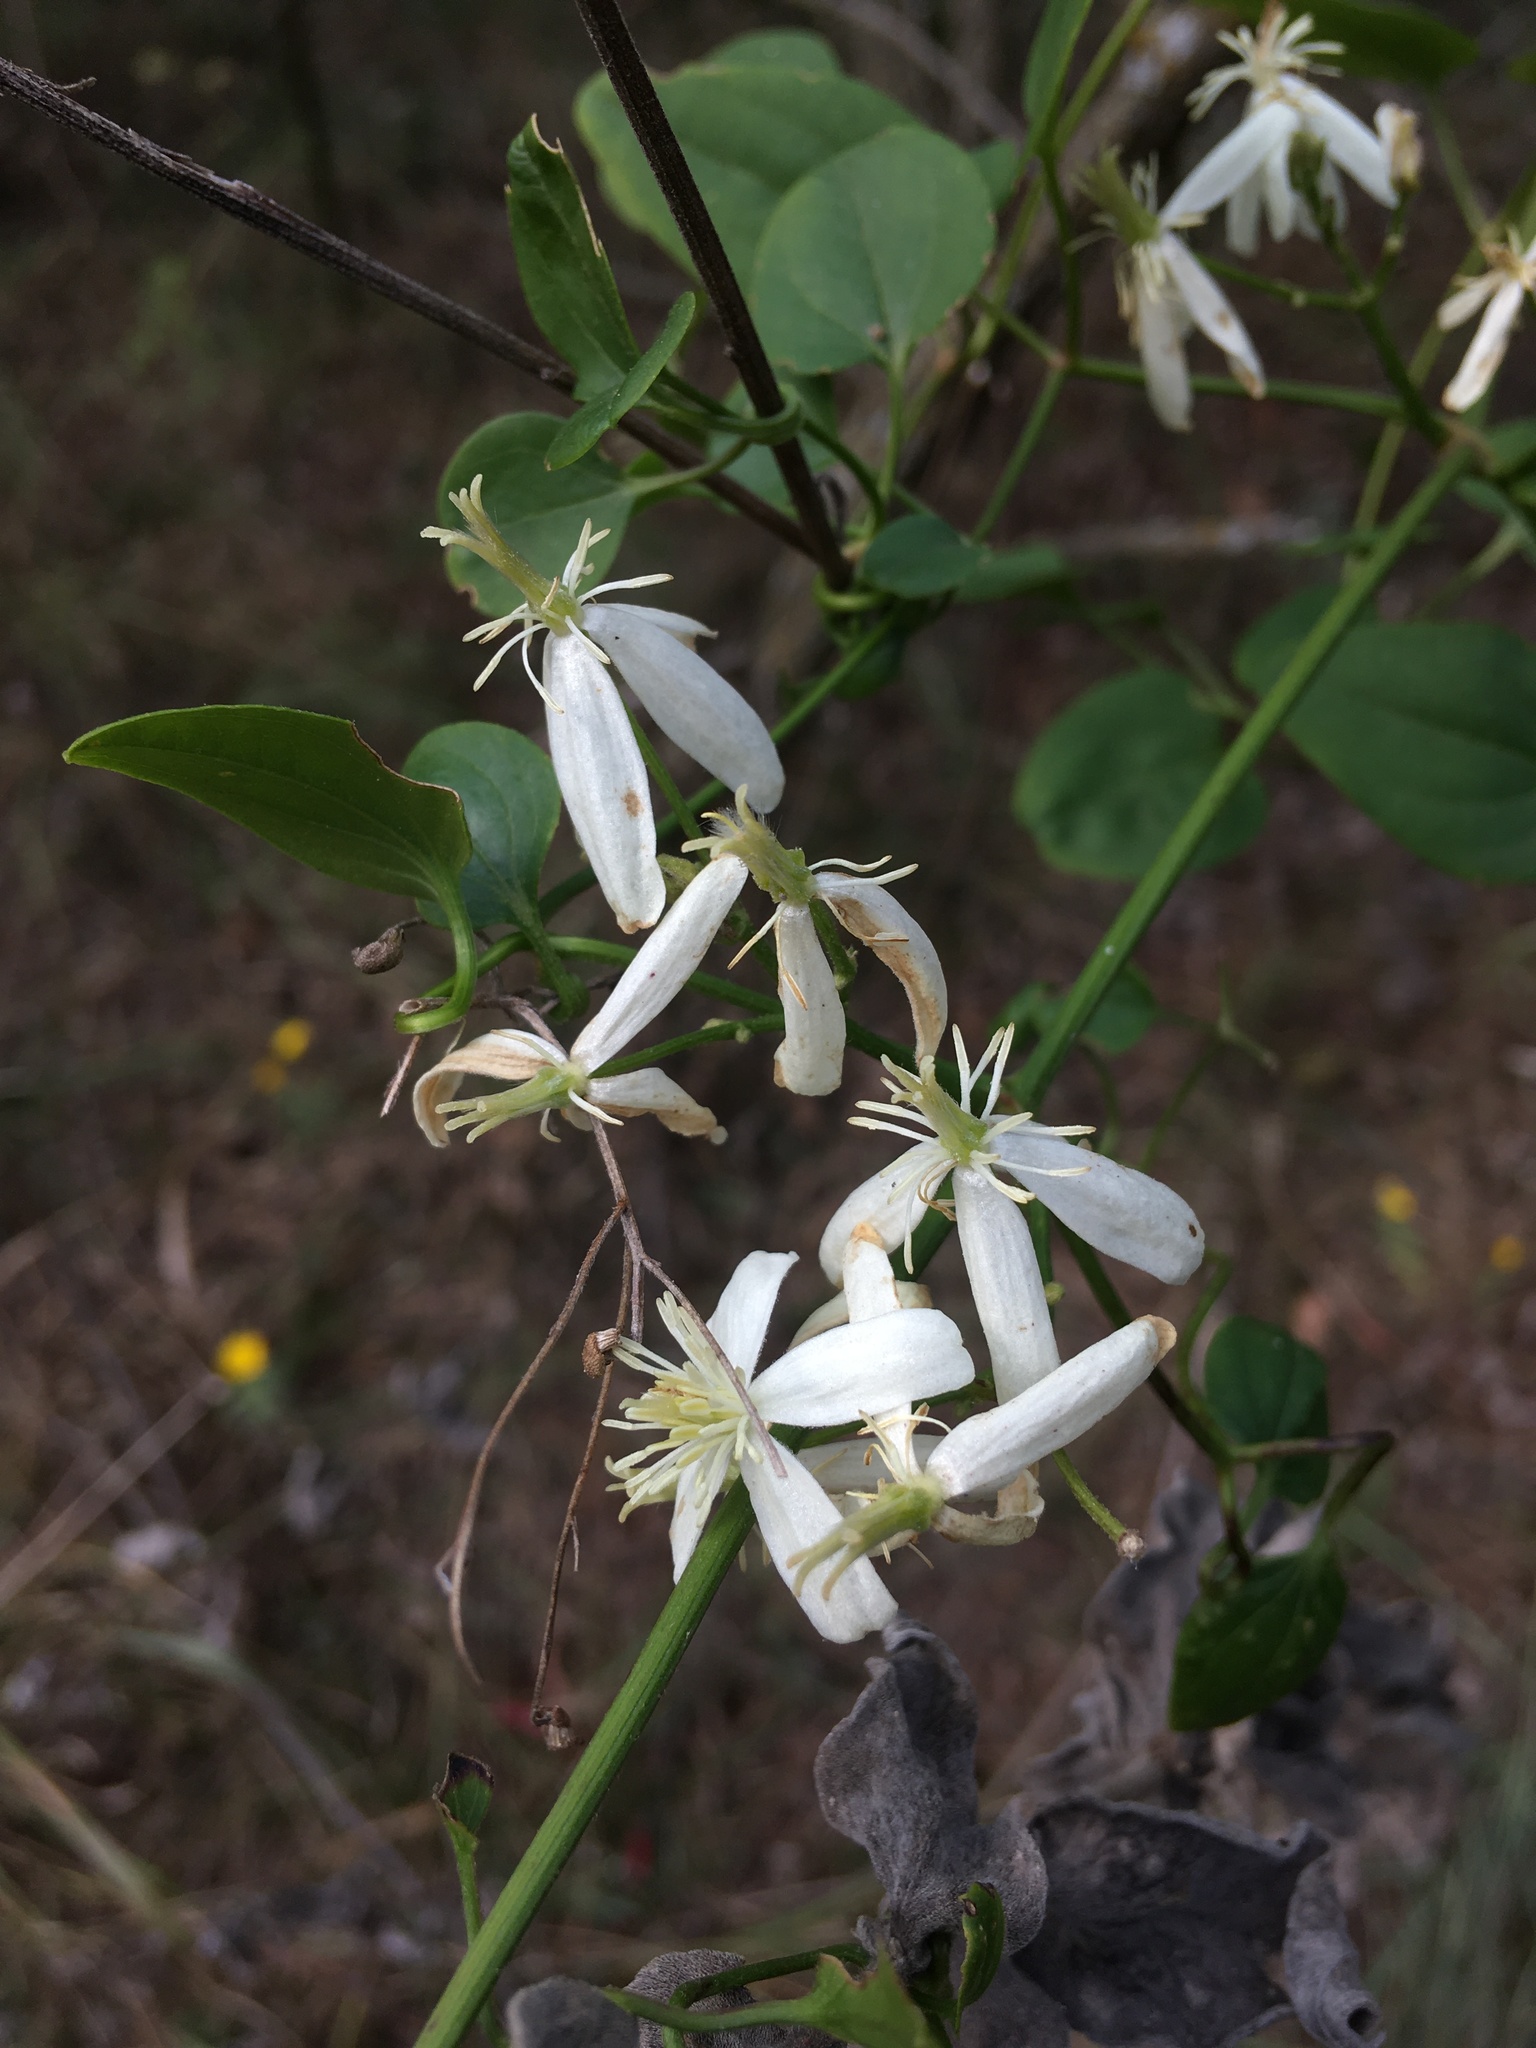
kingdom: Plantae
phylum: Tracheophyta
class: Magnoliopsida
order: Ranunculales
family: Ranunculaceae
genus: Clematis
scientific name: Clematis terniflora
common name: Sweet autumn clematis
